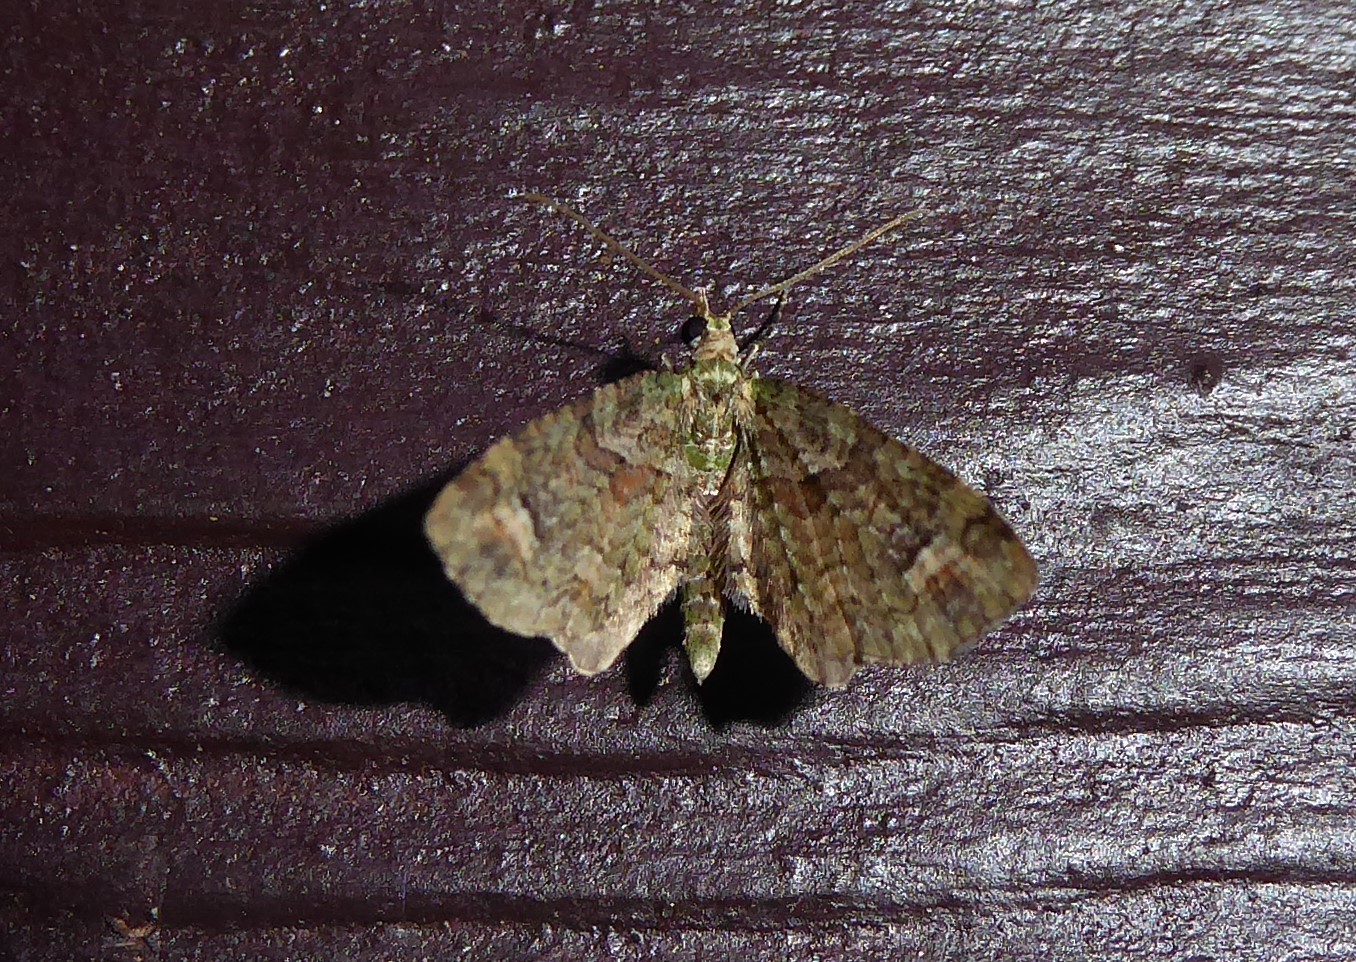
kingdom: Animalia
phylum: Arthropoda
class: Insecta
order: Lepidoptera
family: Geometridae
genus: Idaea
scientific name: Idaea mutanda
